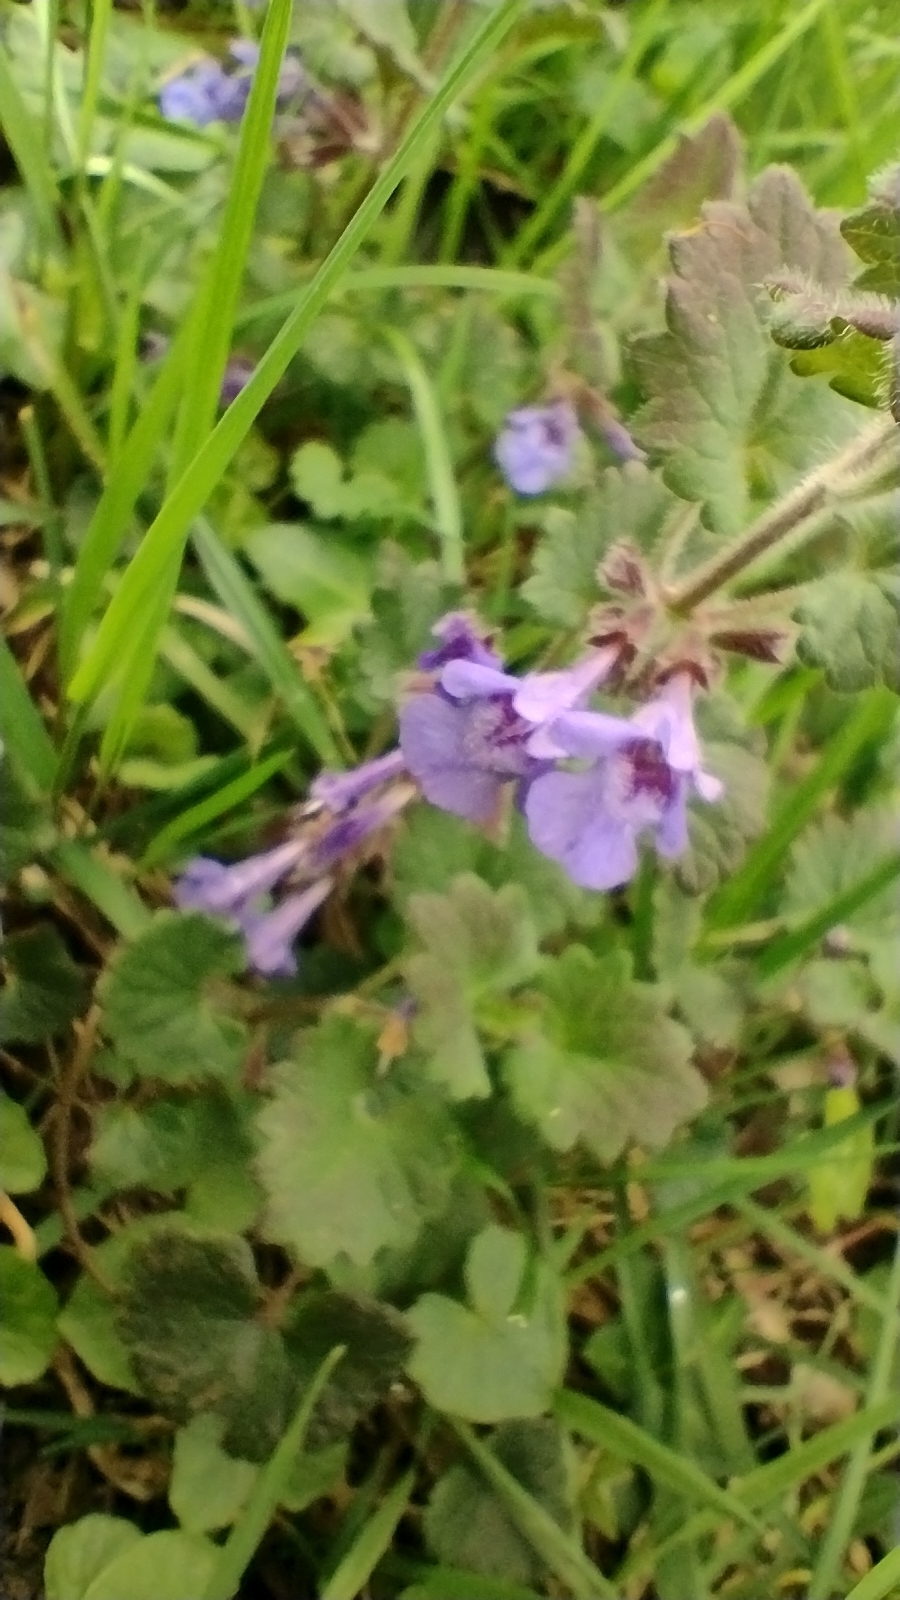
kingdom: Plantae
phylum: Tracheophyta
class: Magnoliopsida
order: Lamiales
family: Lamiaceae
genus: Glechoma
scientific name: Glechoma hederacea
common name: Ground ivy
